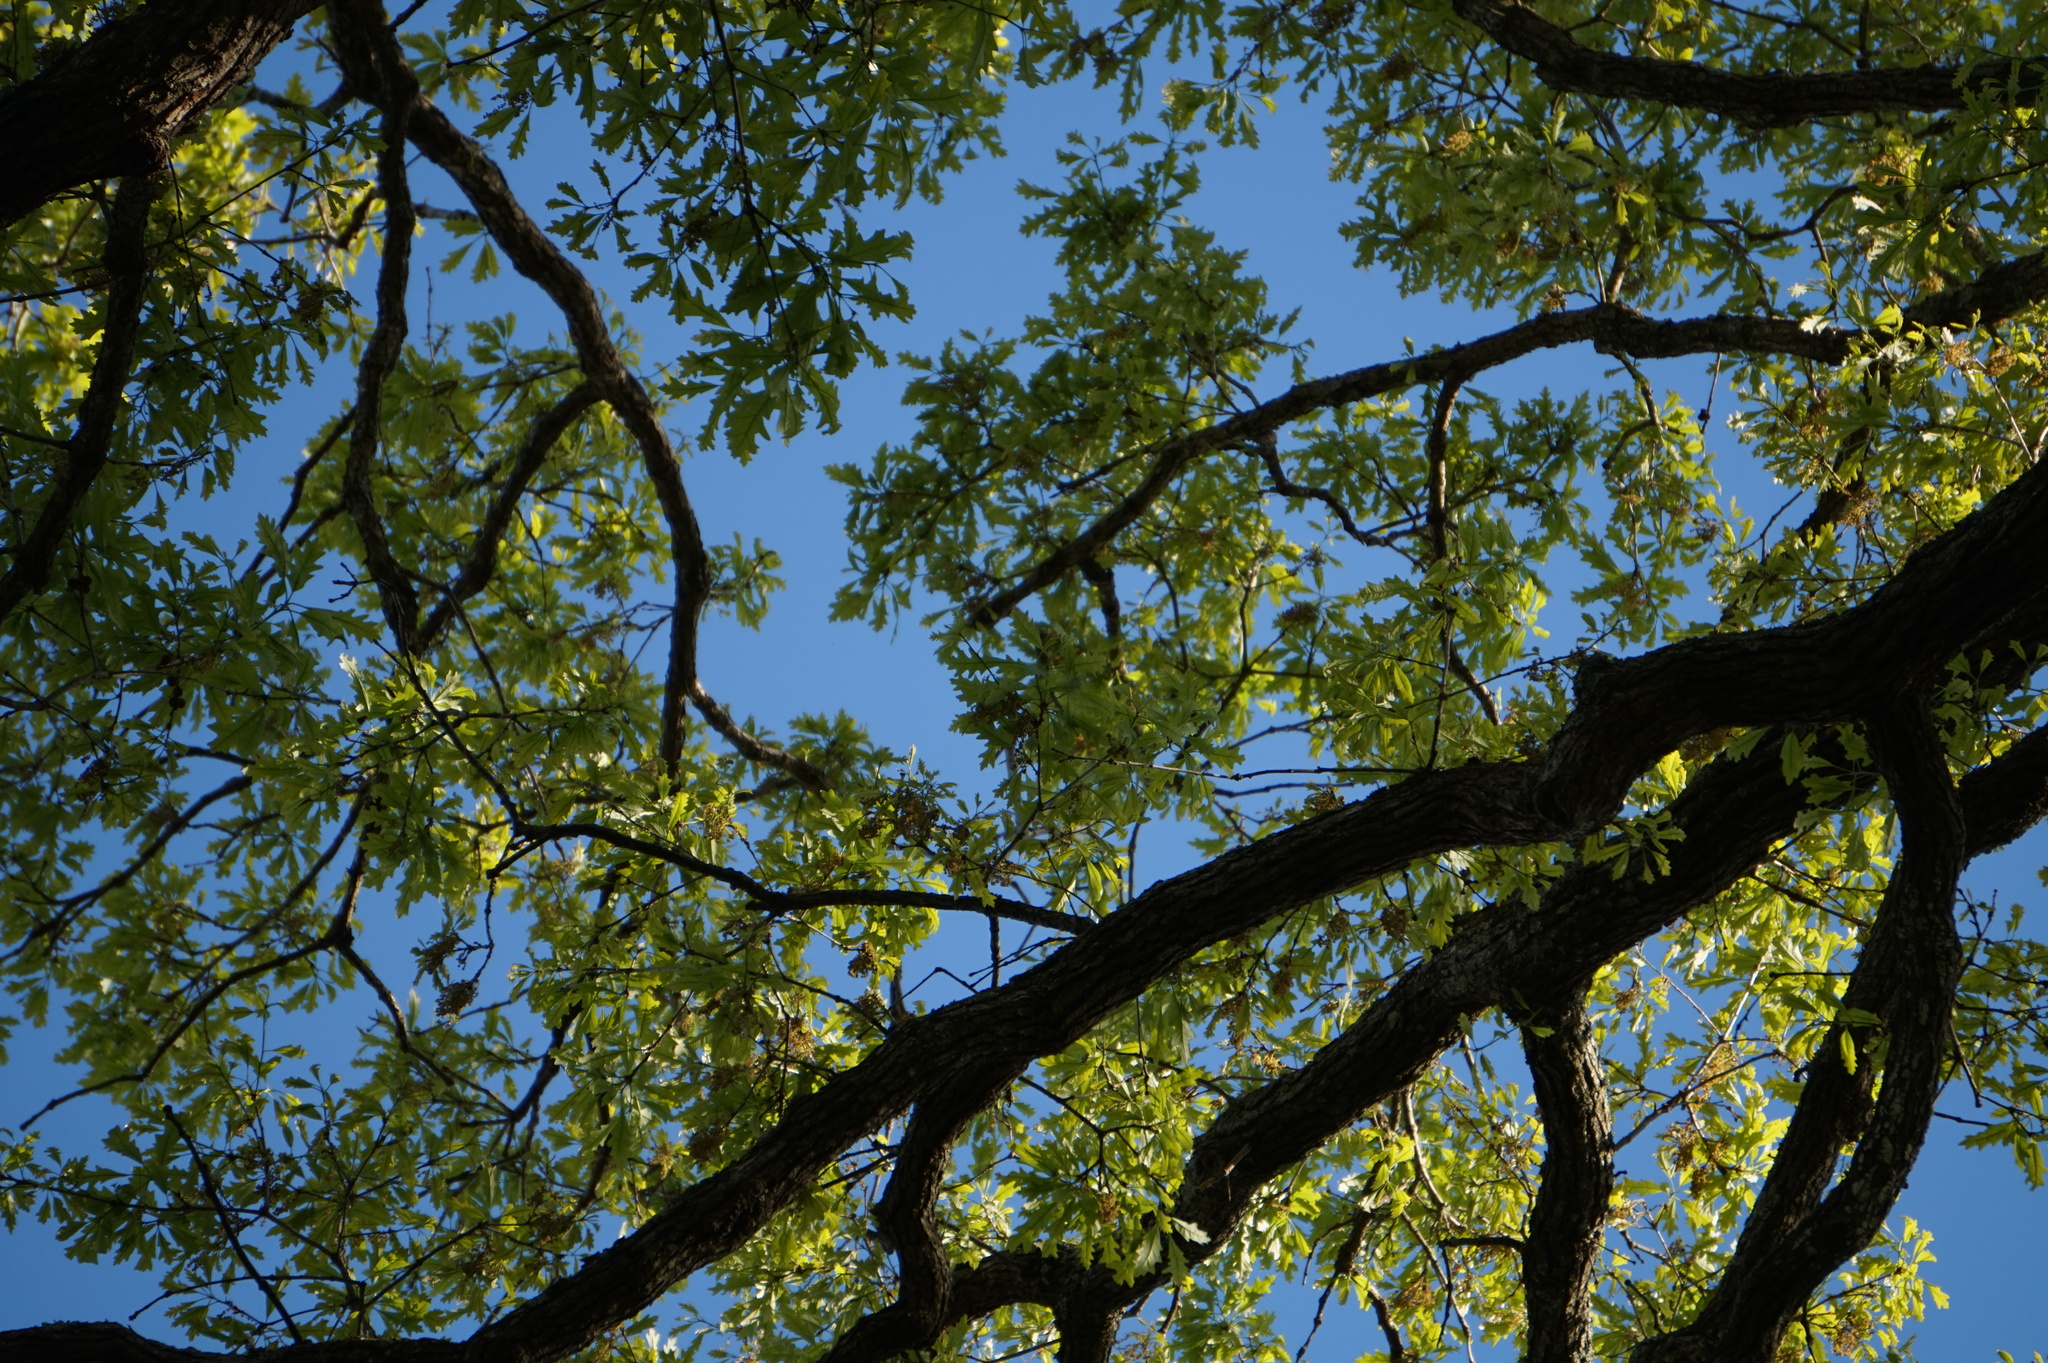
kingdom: Plantae
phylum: Tracheophyta
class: Magnoliopsida
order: Fagales
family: Fagaceae
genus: Quercus
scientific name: Quercus alba
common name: White oak
